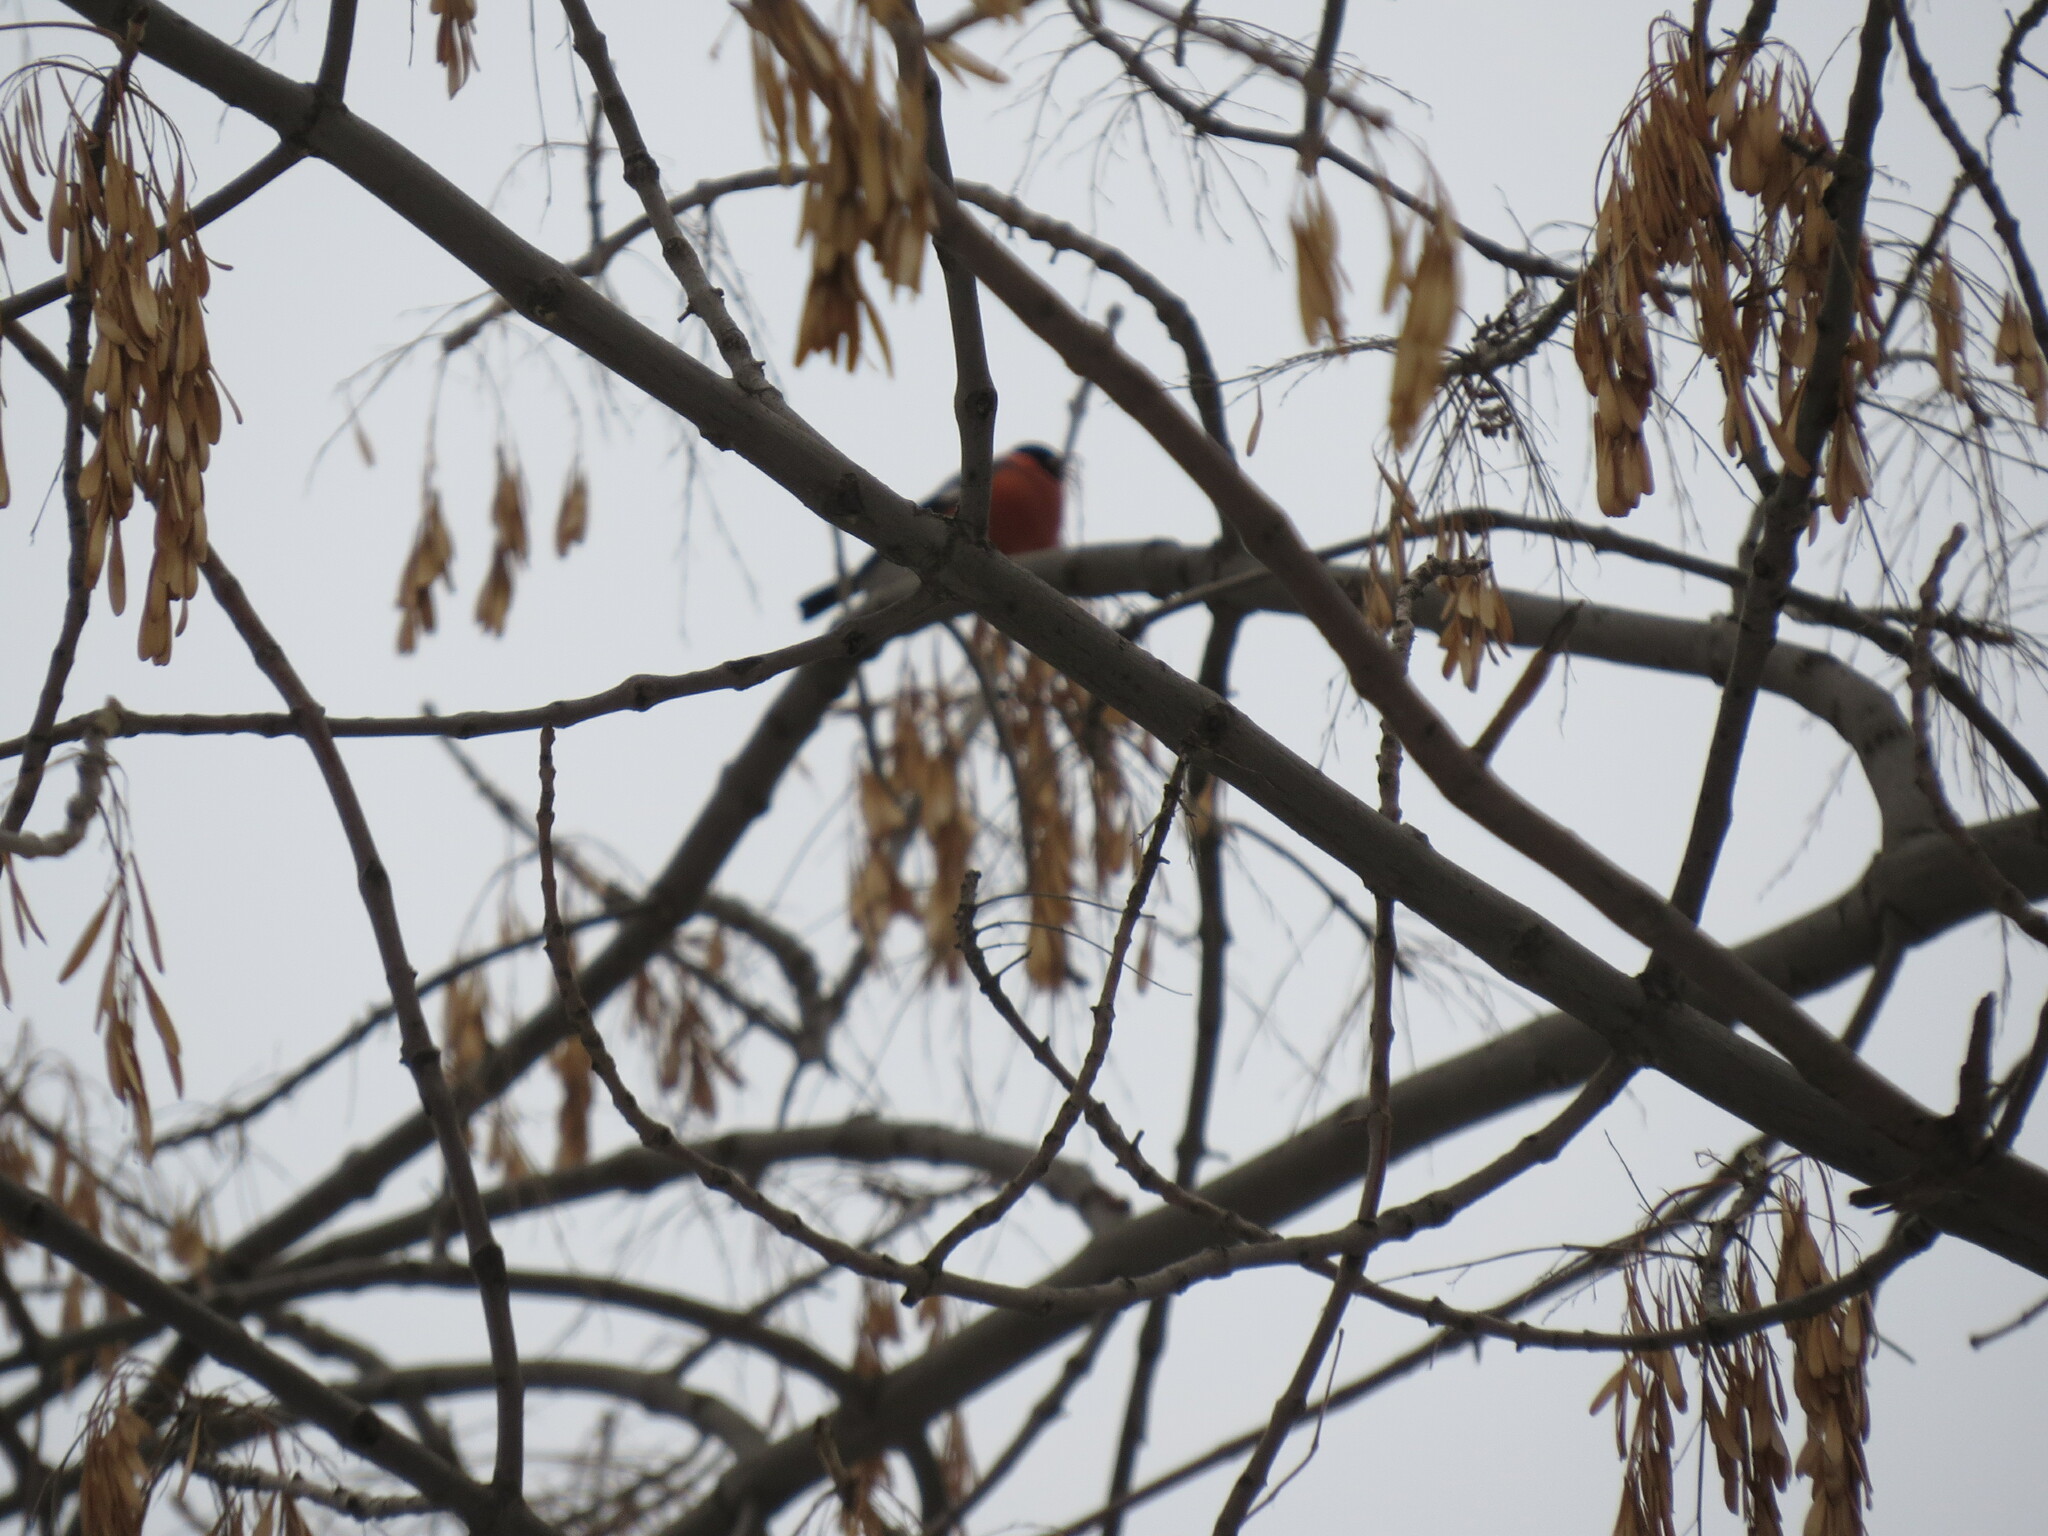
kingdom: Animalia
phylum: Chordata
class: Aves
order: Passeriformes
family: Fringillidae
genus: Pyrrhula
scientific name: Pyrrhula pyrrhula
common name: Eurasian bullfinch
